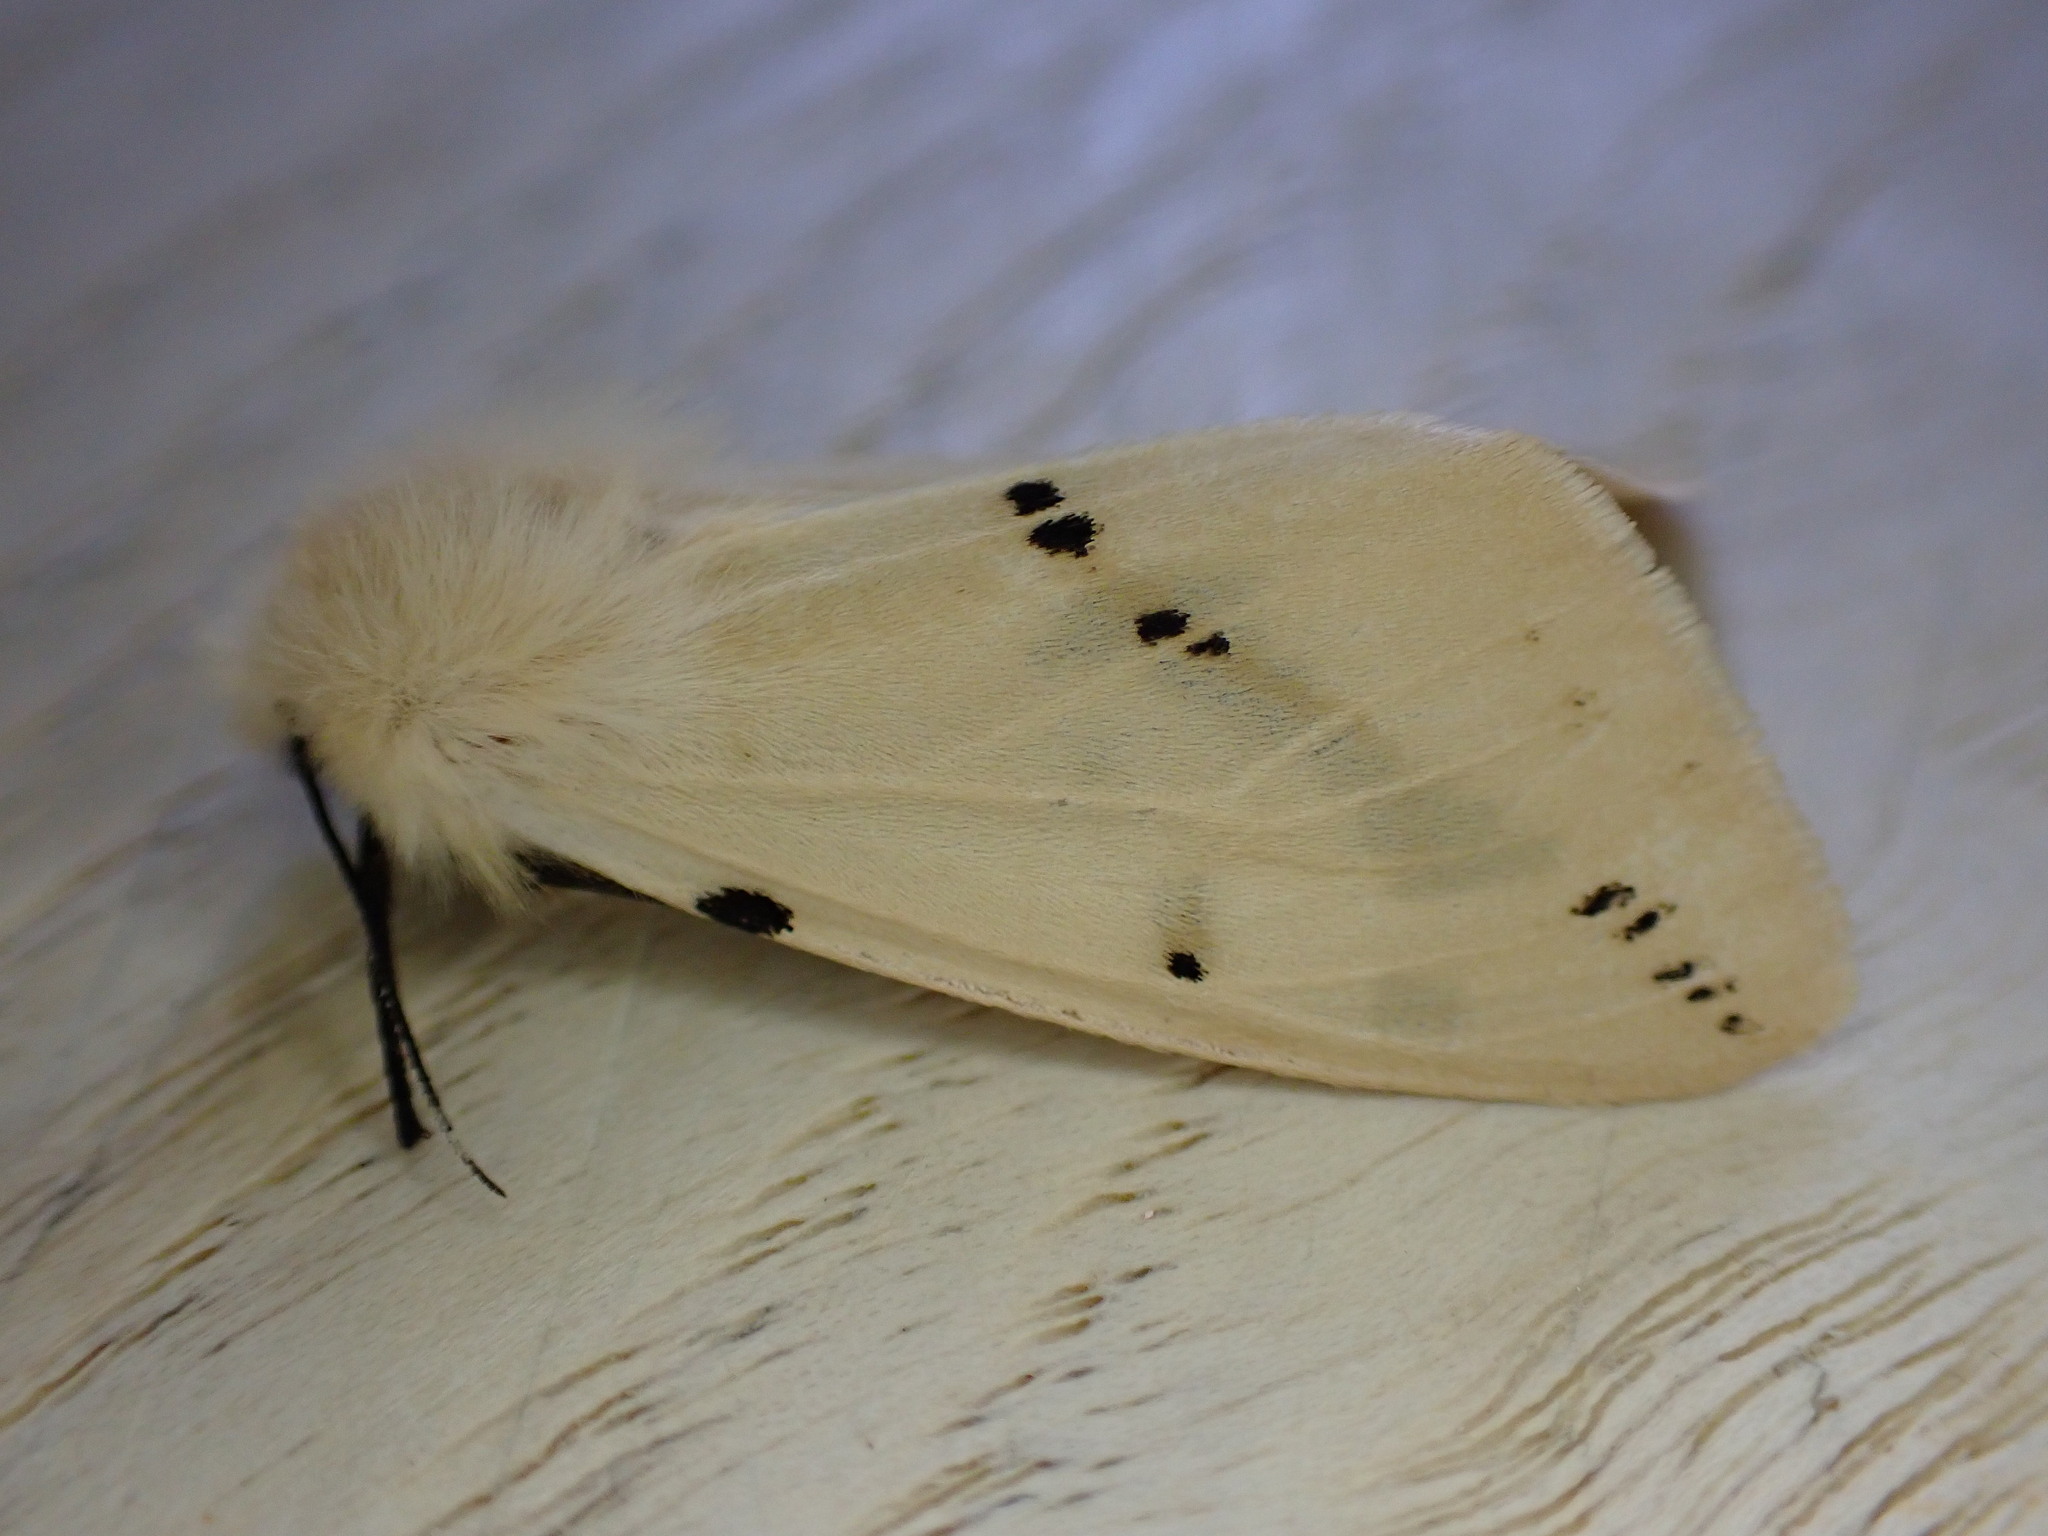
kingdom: Animalia
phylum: Arthropoda
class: Insecta
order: Lepidoptera
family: Erebidae
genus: Spilarctia
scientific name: Spilarctia lutea
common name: Buff ermine
